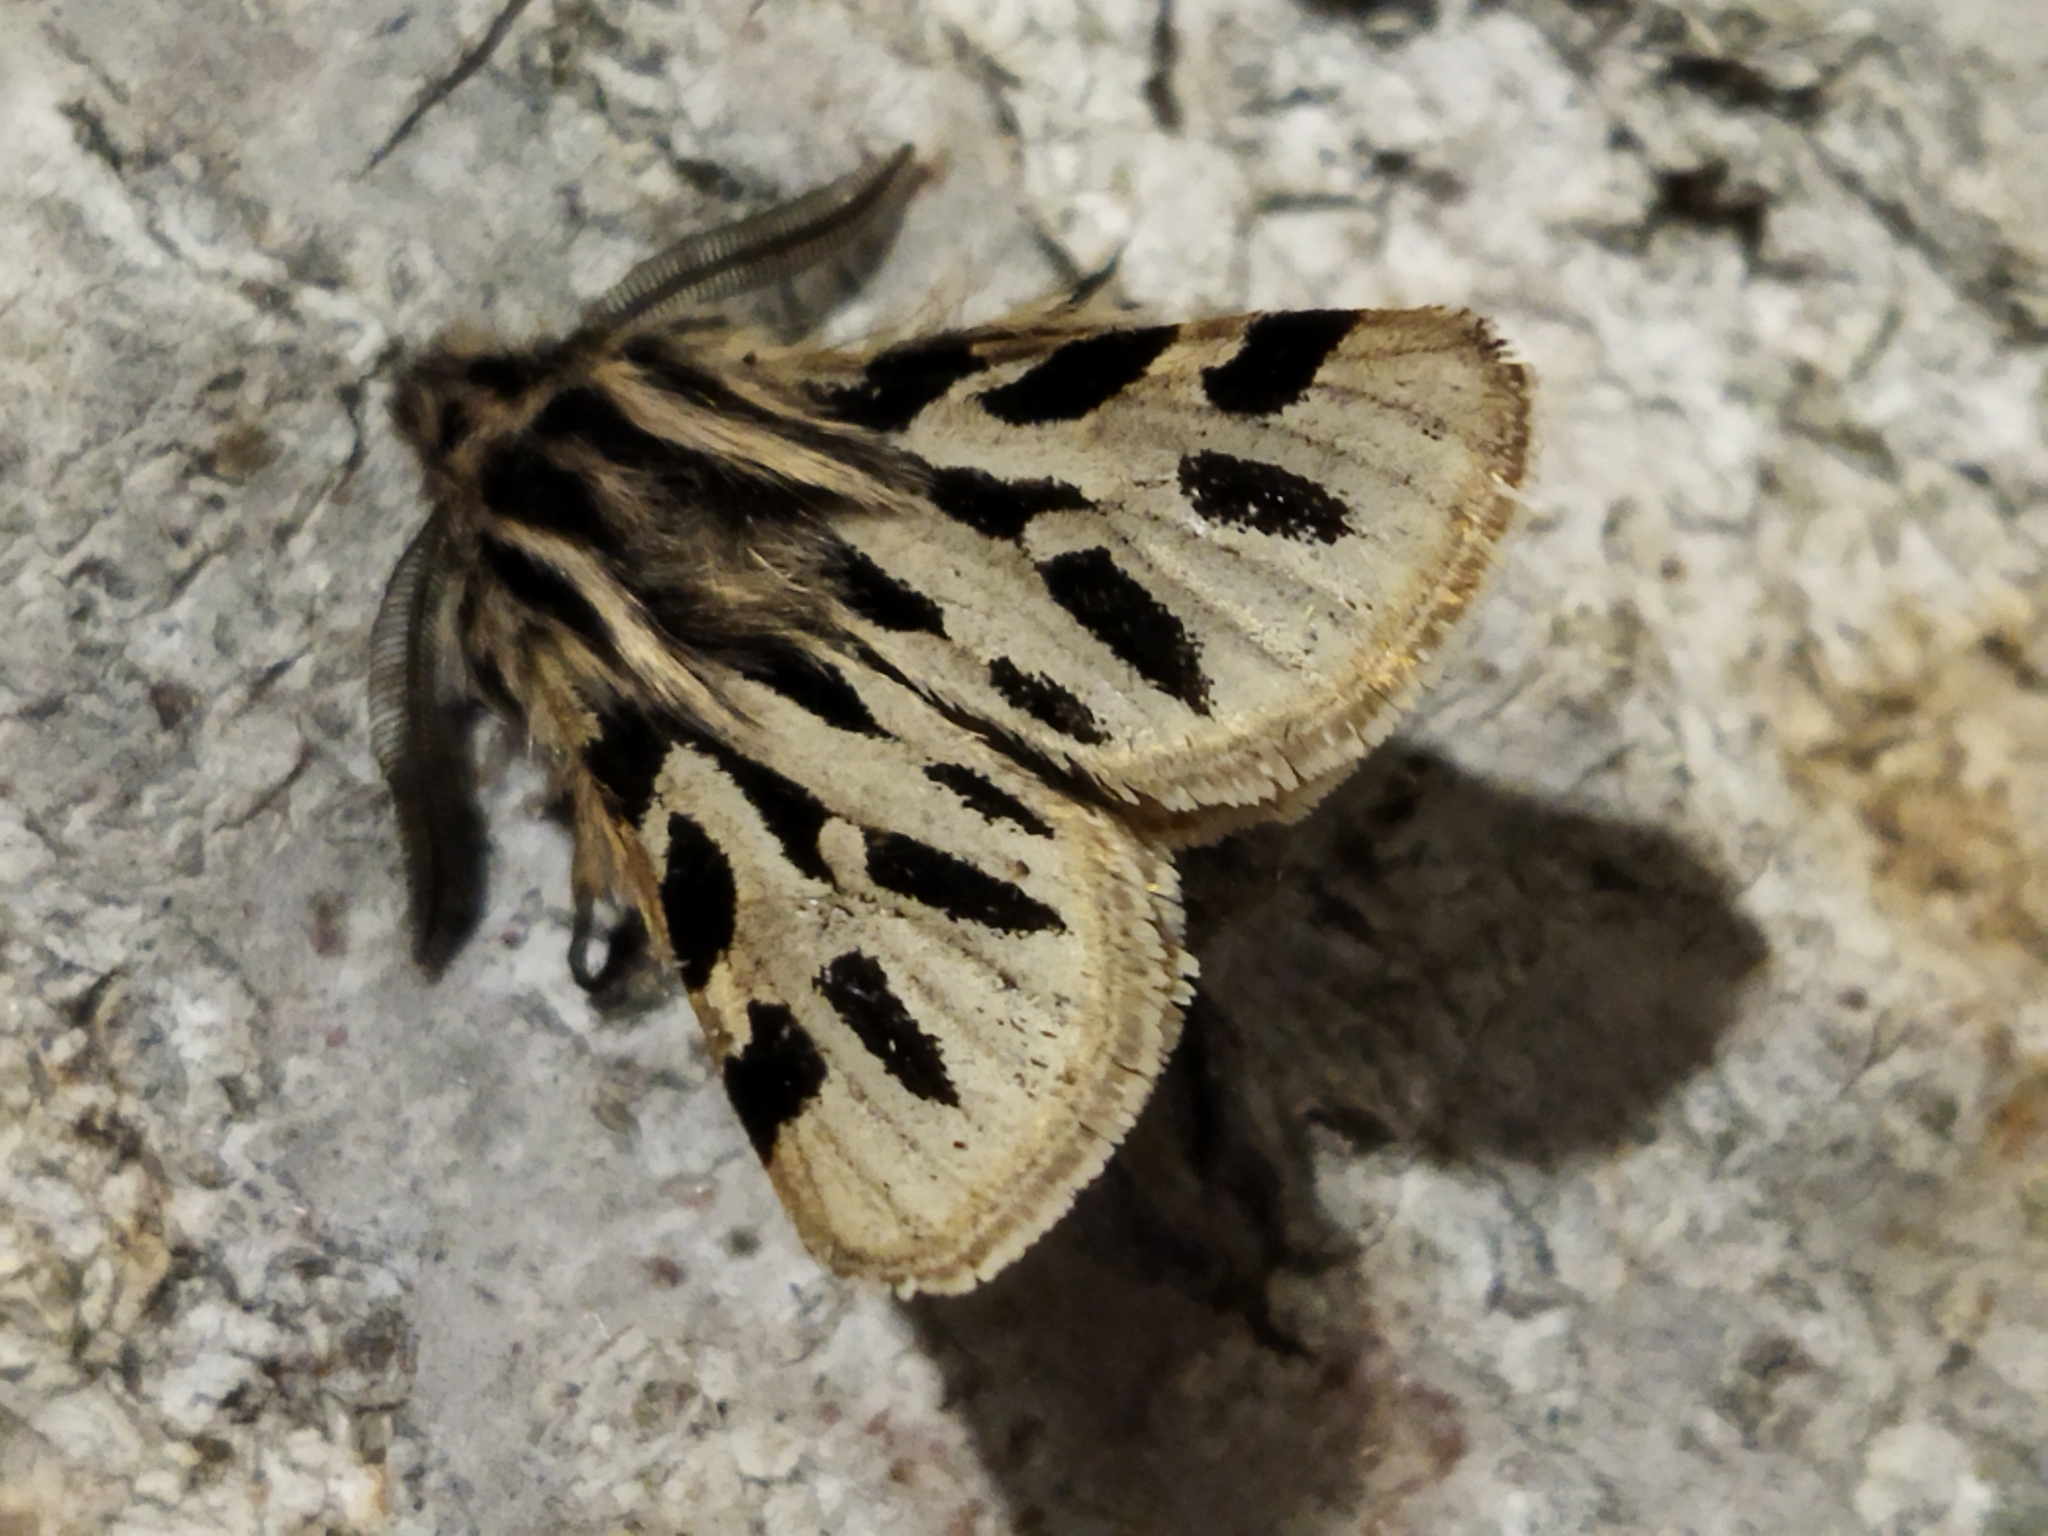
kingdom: Animalia
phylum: Arthropoda
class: Insecta
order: Lepidoptera
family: Erebidae
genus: Ocnogyna
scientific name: Ocnogyna parasita
